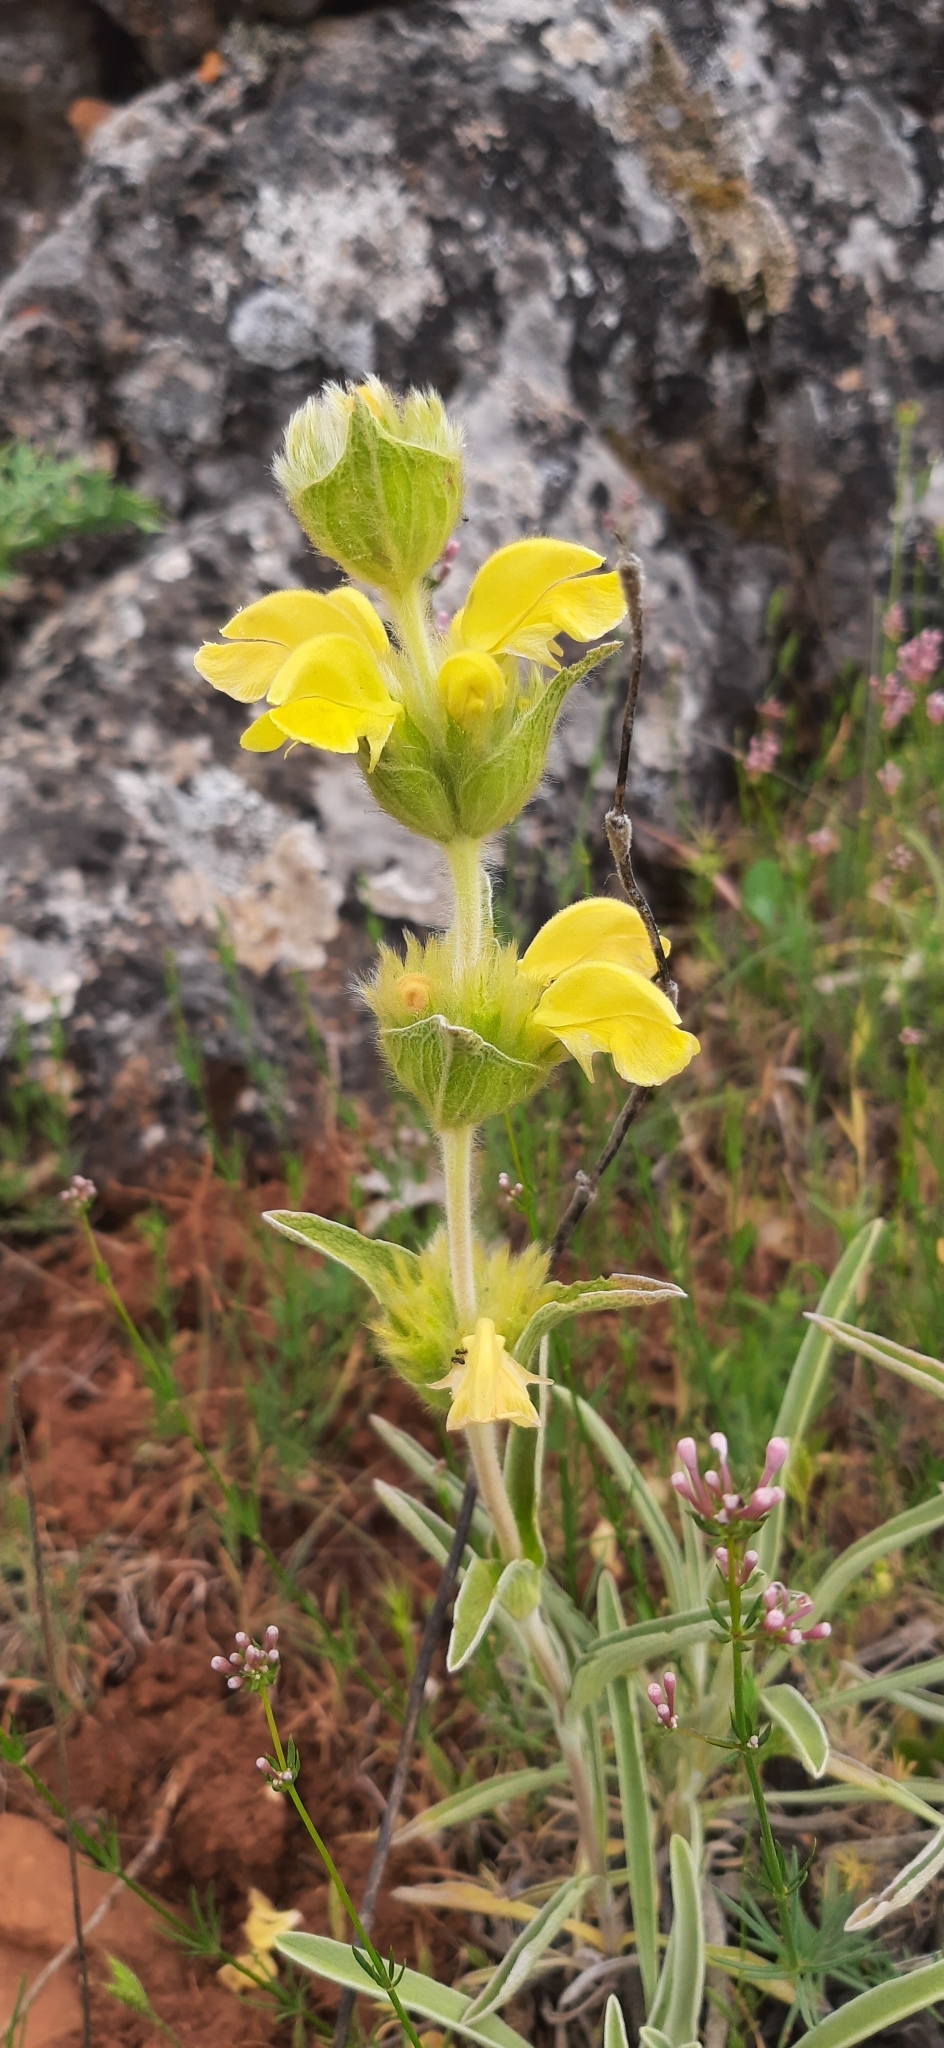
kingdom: Plantae
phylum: Tracheophyta
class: Magnoliopsida
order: Lamiales
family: Lamiaceae
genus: Phlomis
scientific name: Phlomis lychnitis
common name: Lampwickplant
